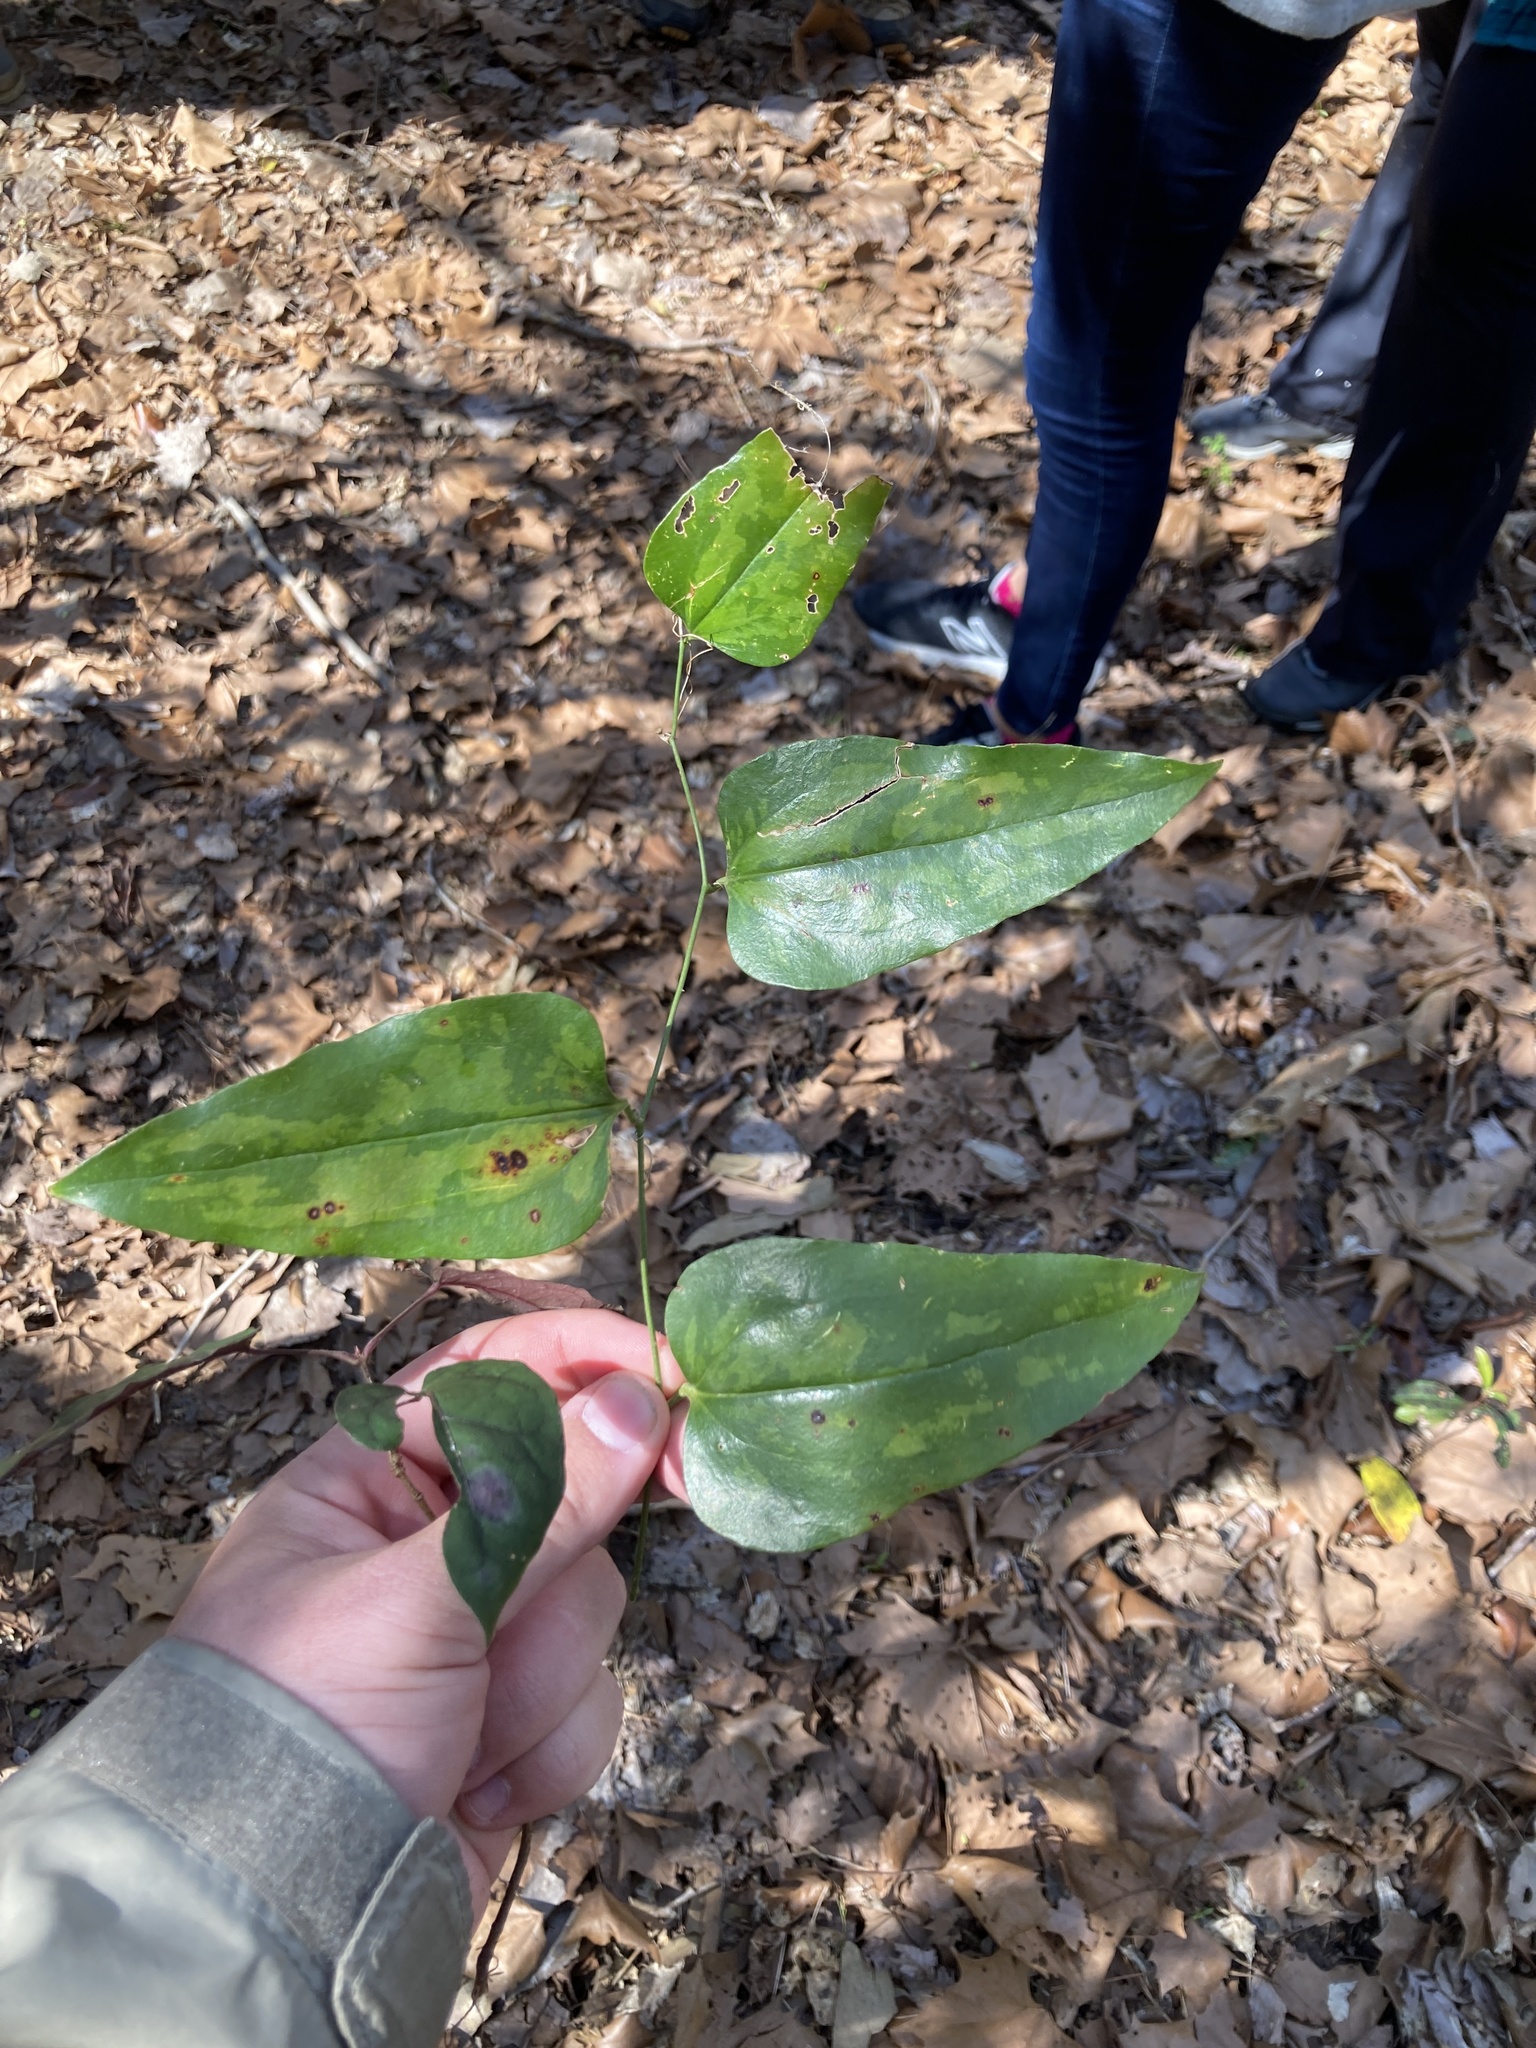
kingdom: Plantae
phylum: Tracheophyta
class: Liliopsida
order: Liliales
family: Smilacaceae
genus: Smilax
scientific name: Smilax maritima
